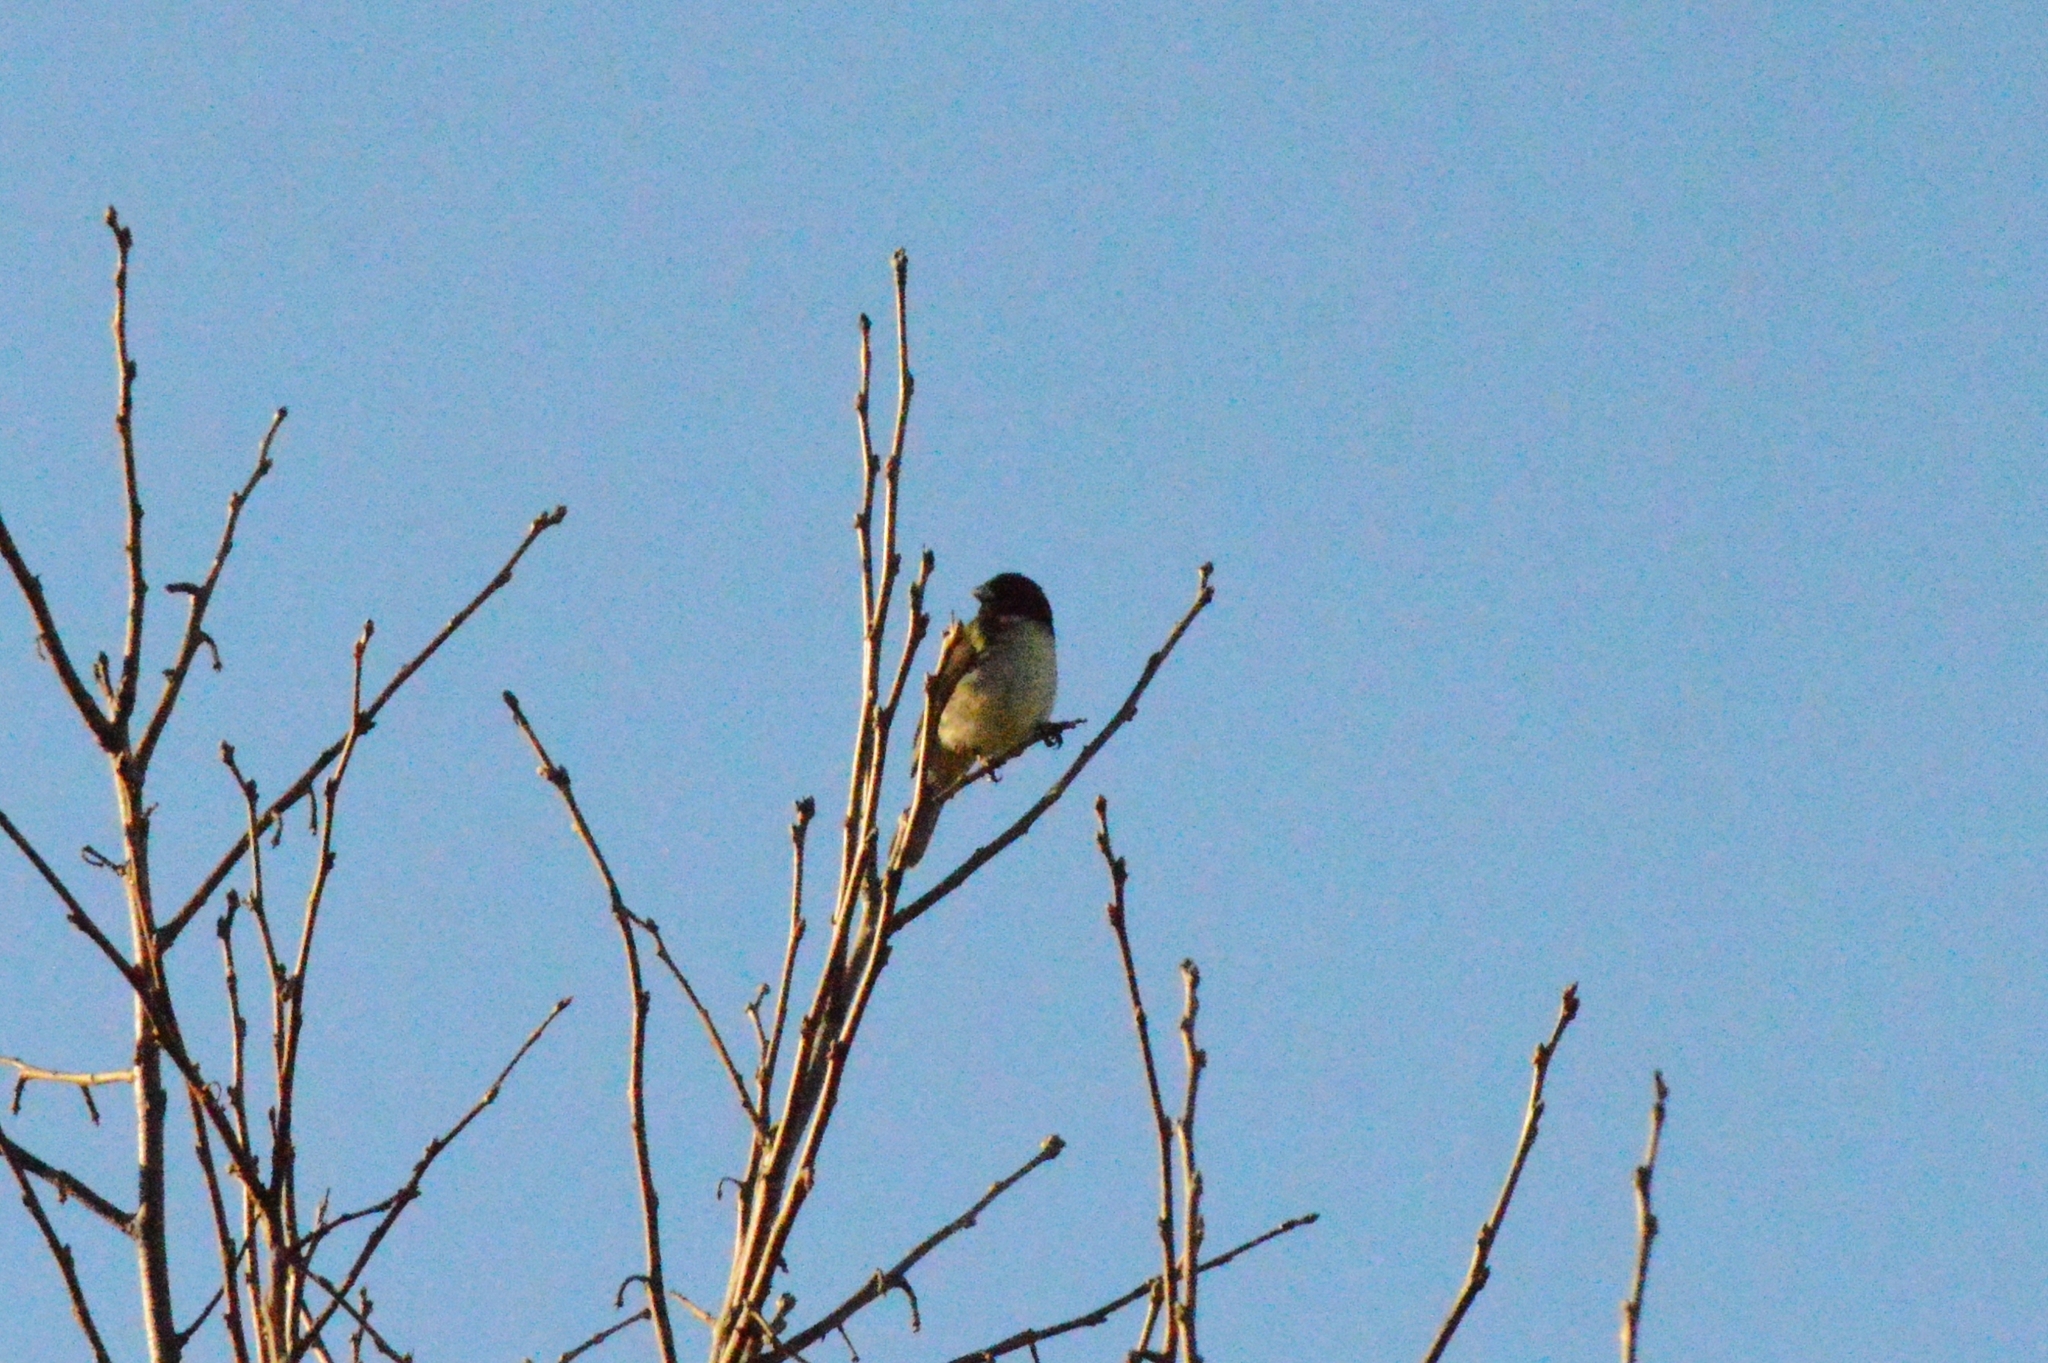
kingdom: Animalia
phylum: Chordata
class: Aves
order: Passeriformes
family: Thraupidae
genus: Sporophila
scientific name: Sporophila nigricollis
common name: Yellow-bellied seedeater
